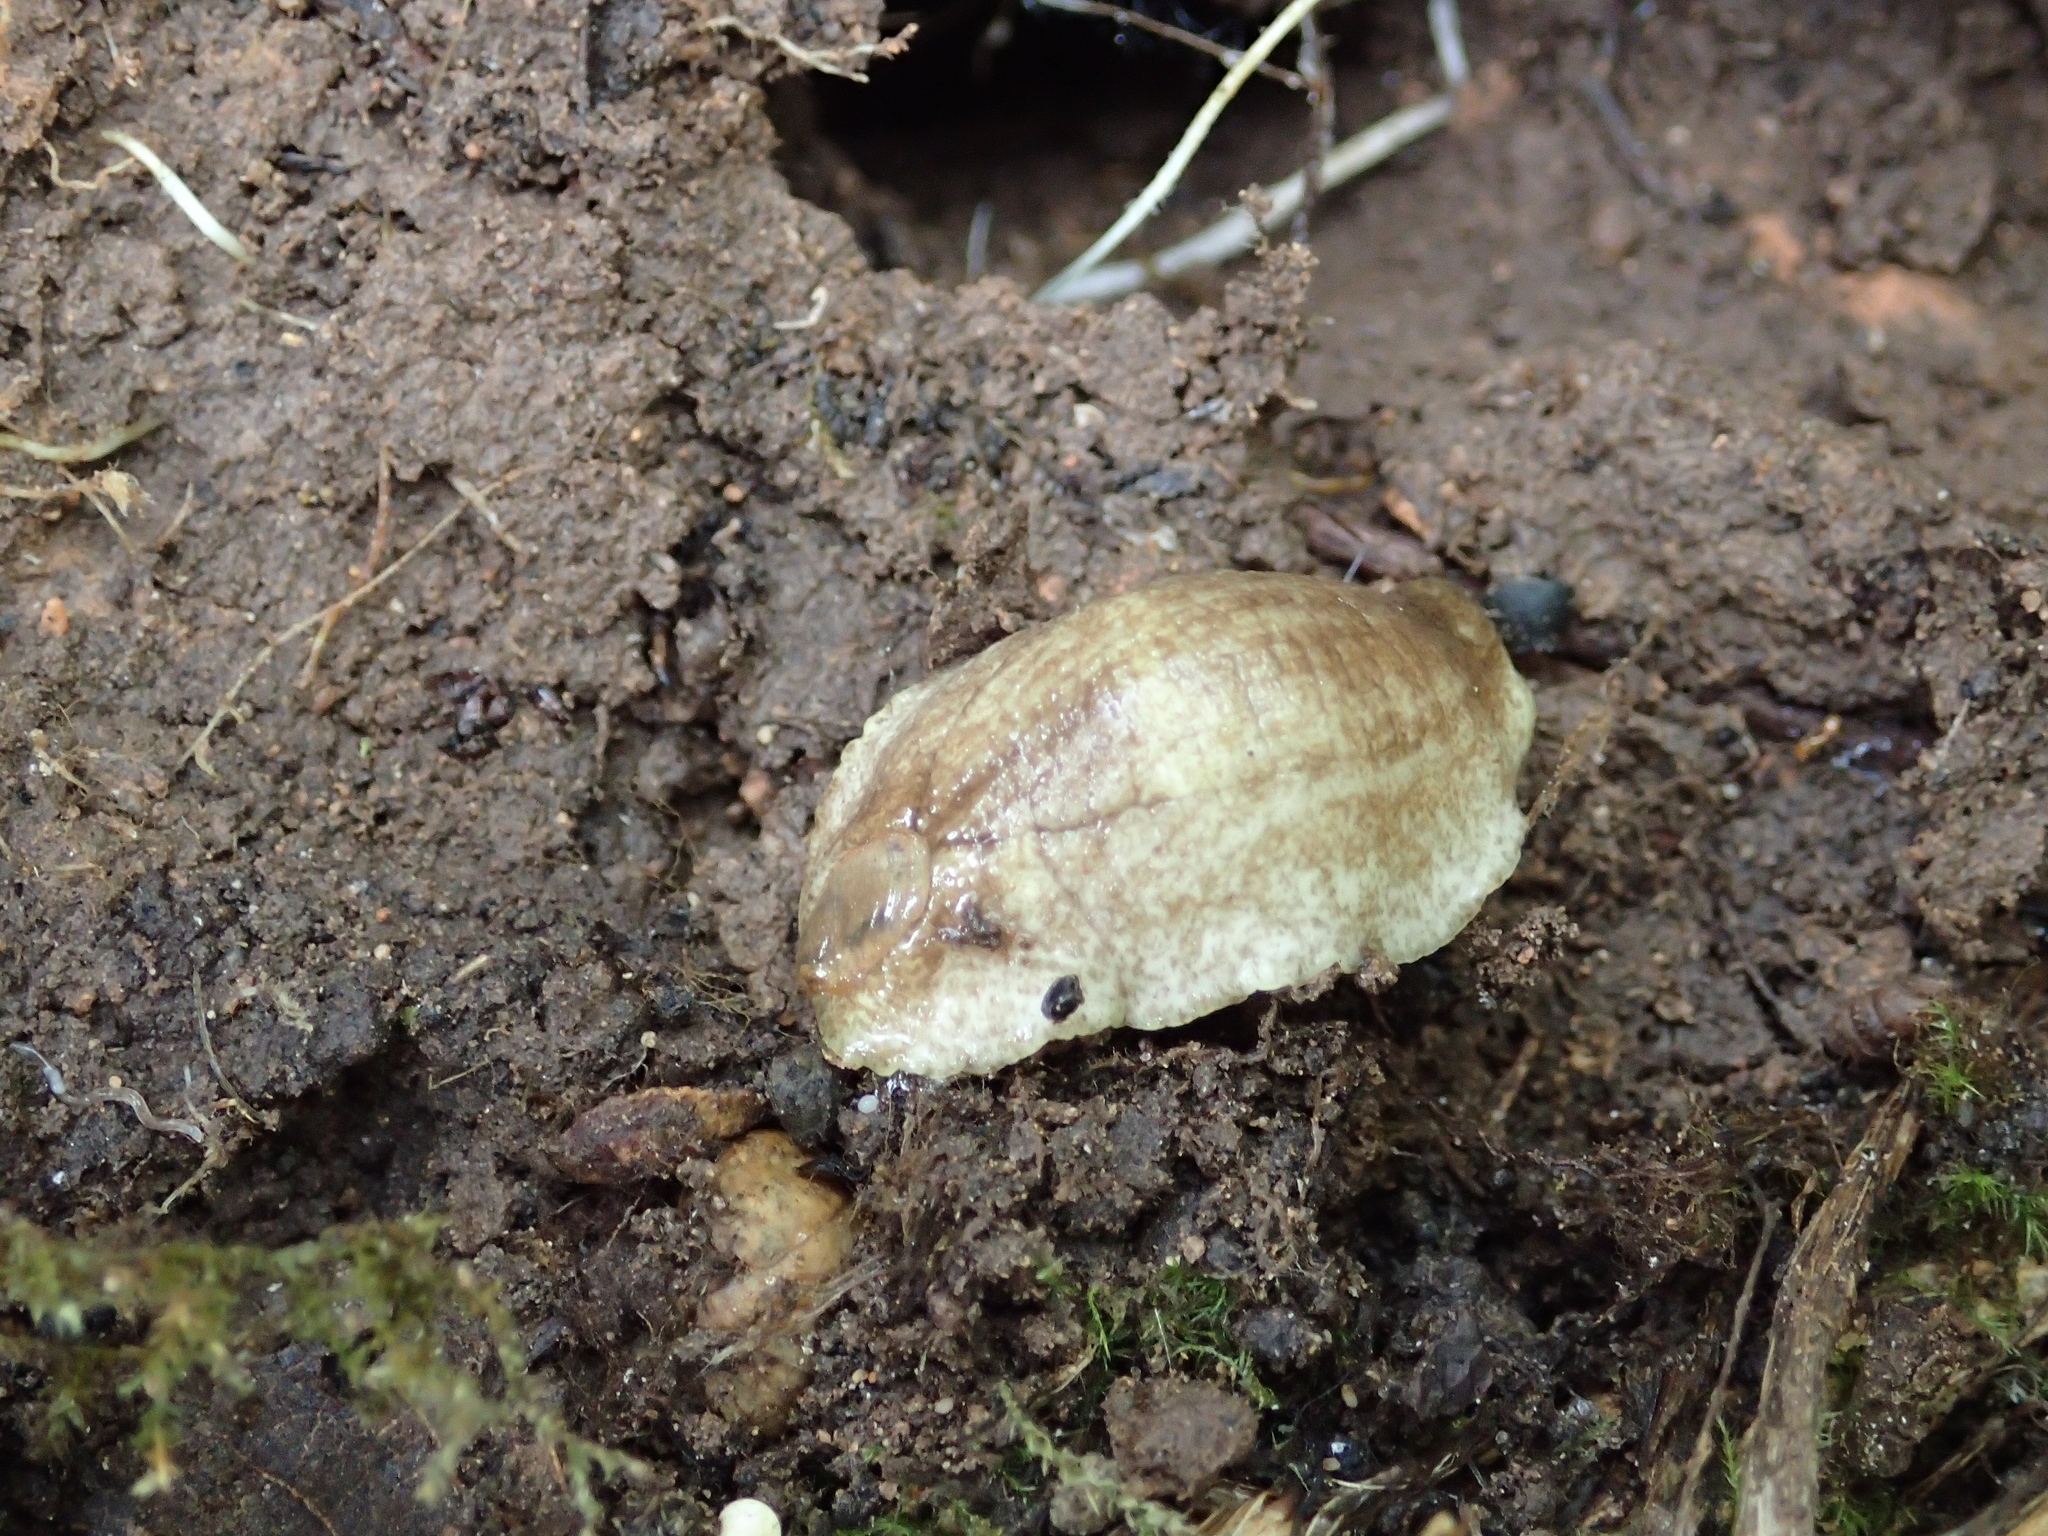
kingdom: Animalia
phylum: Mollusca
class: Gastropoda
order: Stylommatophora
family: Testacellidae
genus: Testacella
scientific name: Testacella haliotidea
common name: Shelled slug
